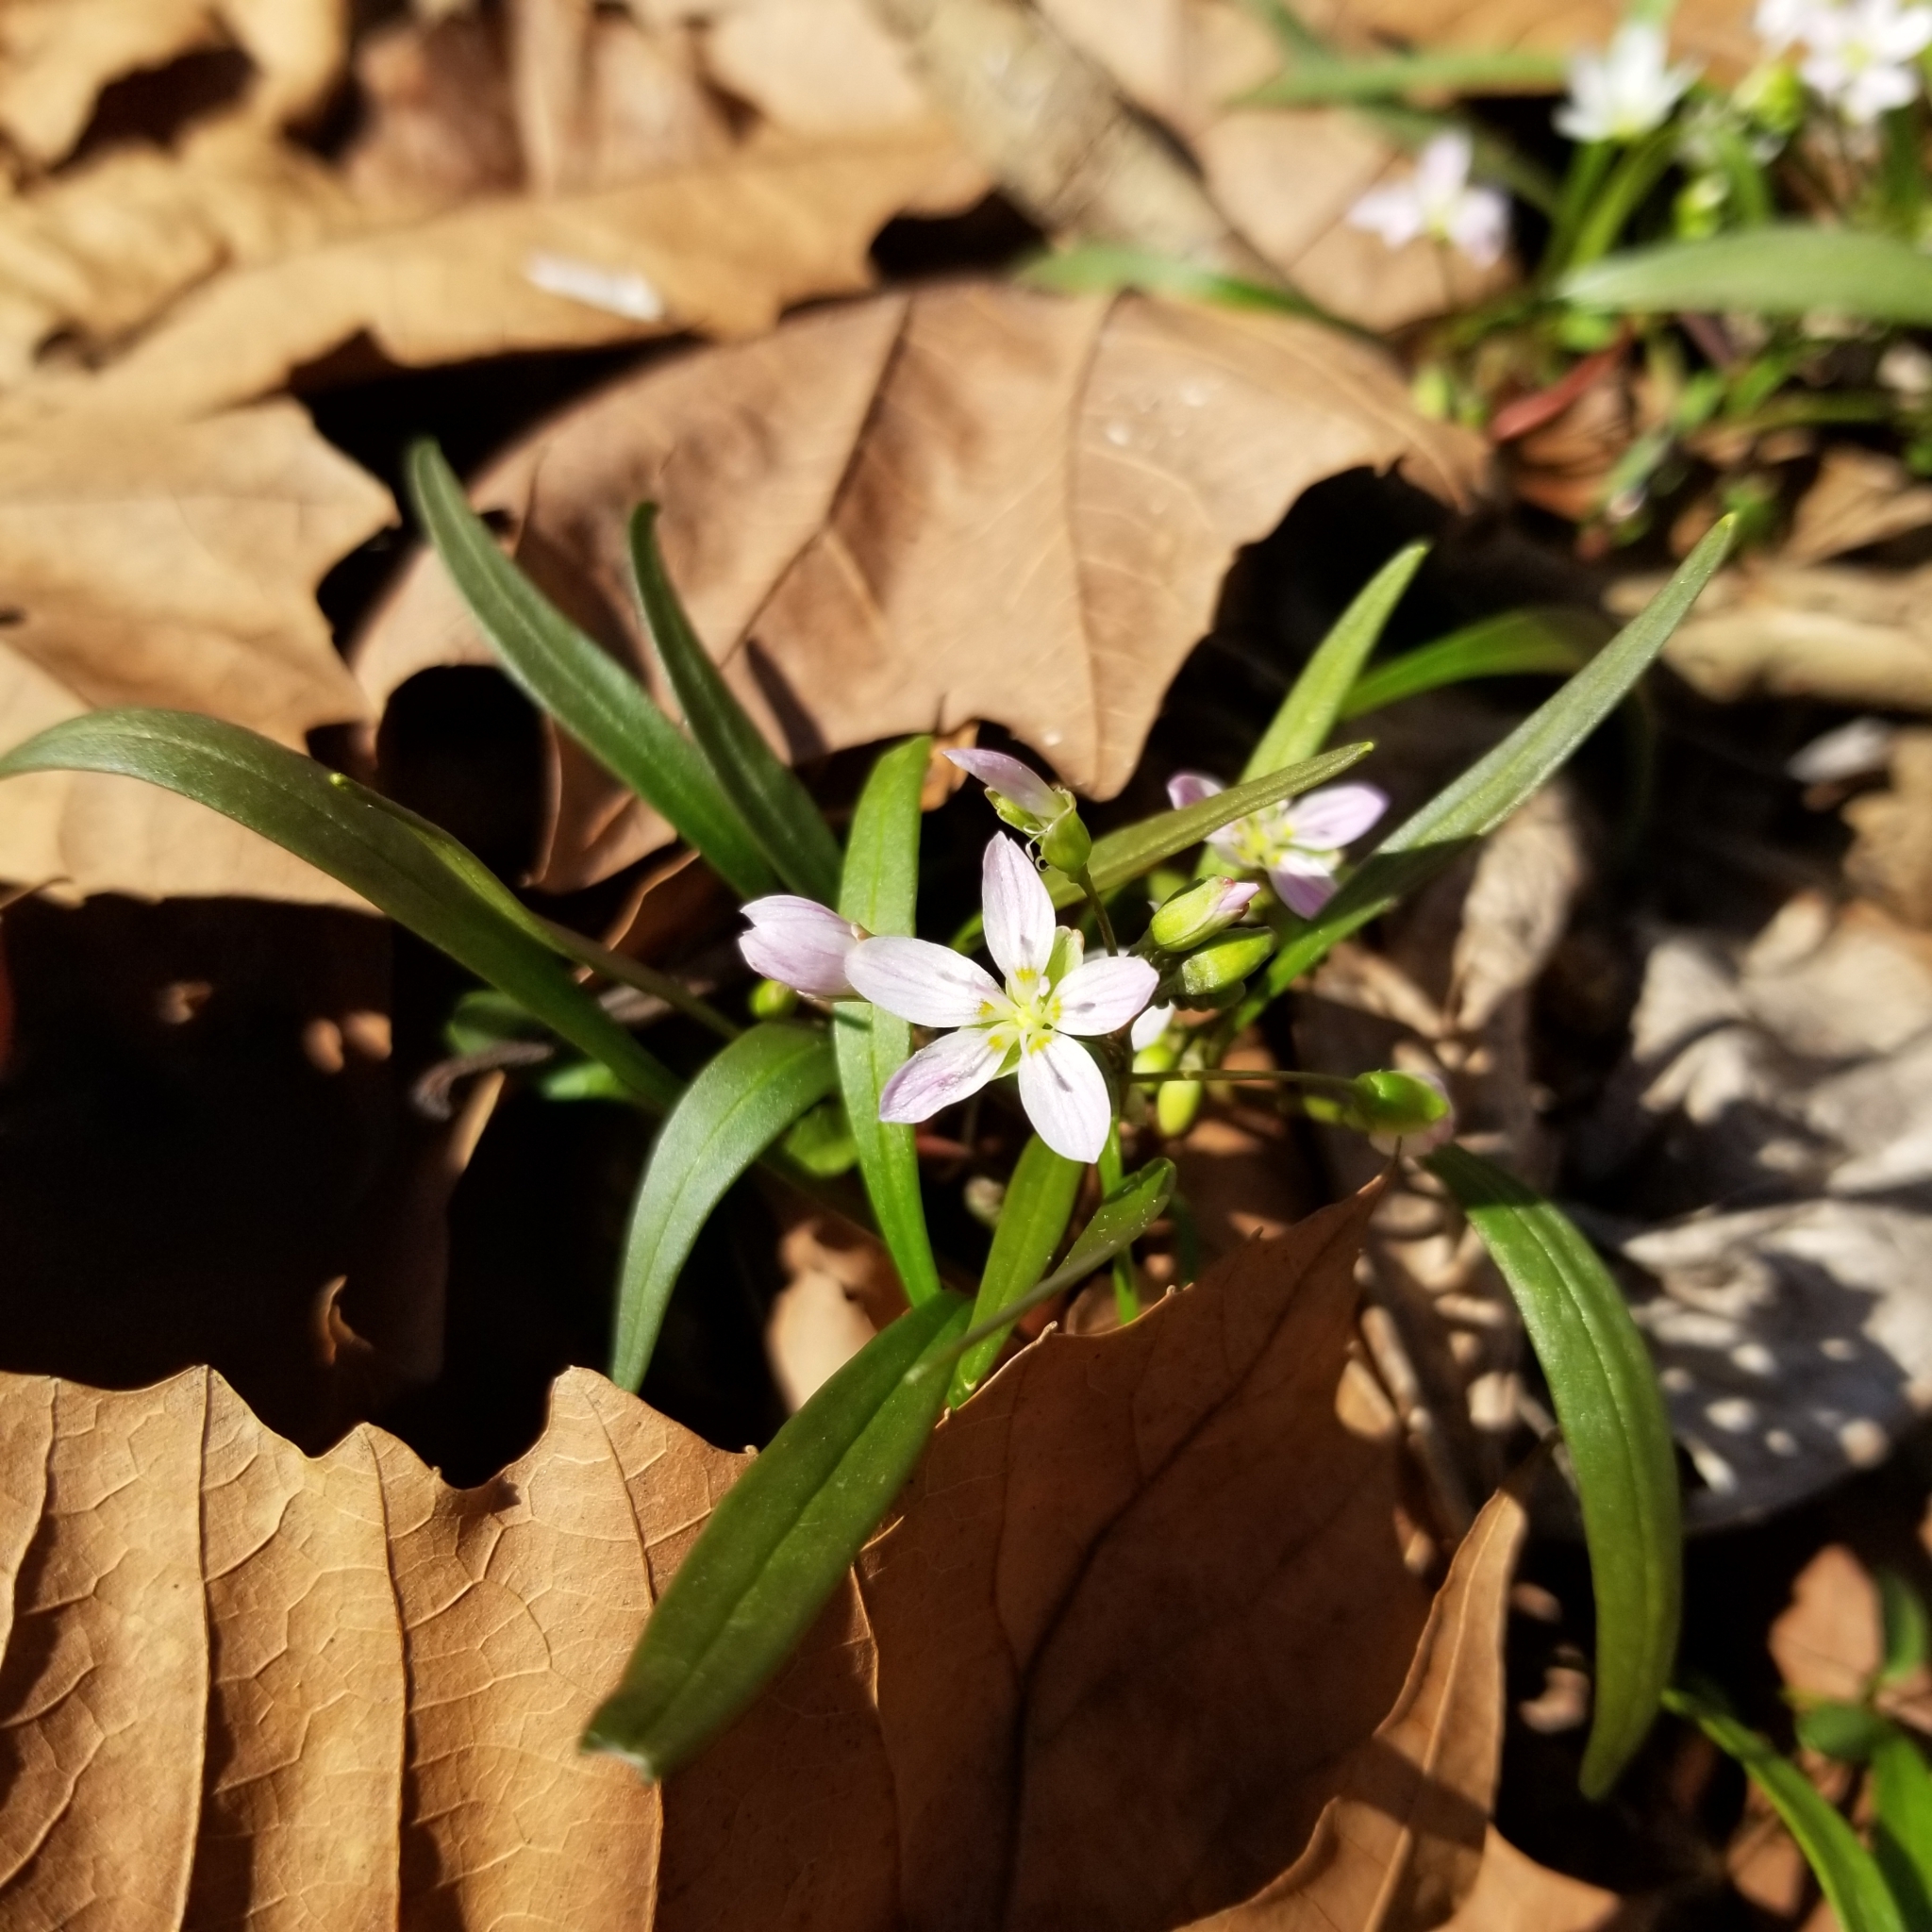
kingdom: Plantae
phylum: Tracheophyta
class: Magnoliopsida
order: Caryophyllales
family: Montiaceae
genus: Claytonia
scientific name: Claytonia virginica
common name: Virginia springbeauty
